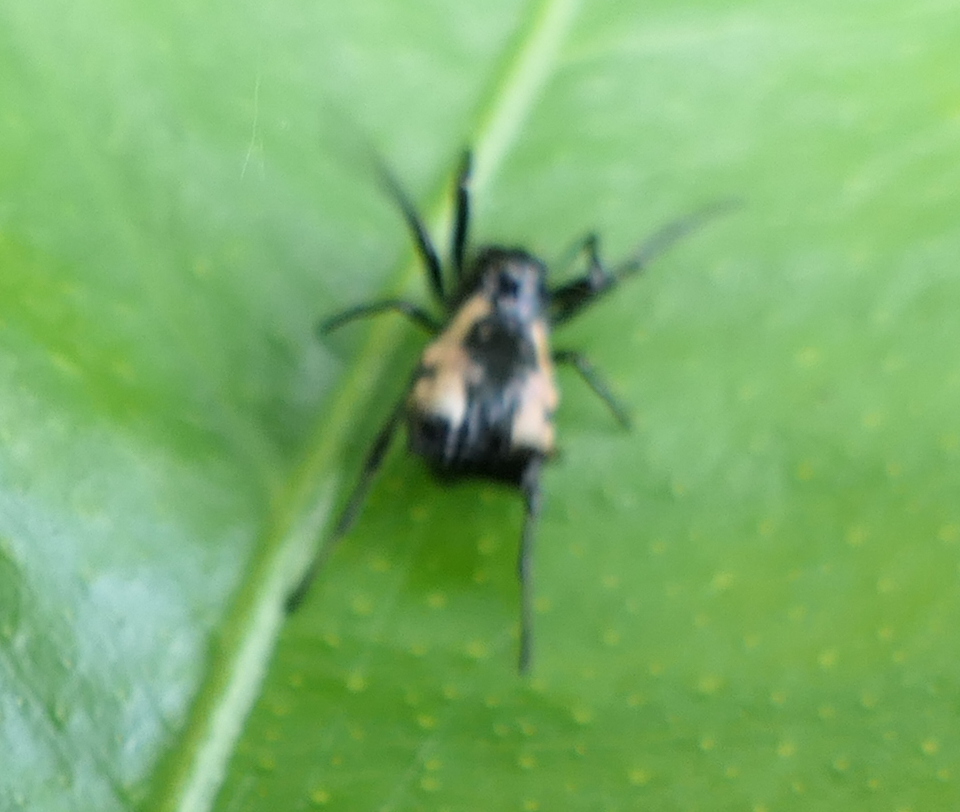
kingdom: Animalia
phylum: Arthropoda
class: Arachnida
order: Araneae
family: Araneidae
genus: Micrathena
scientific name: Micrathena patruelis
